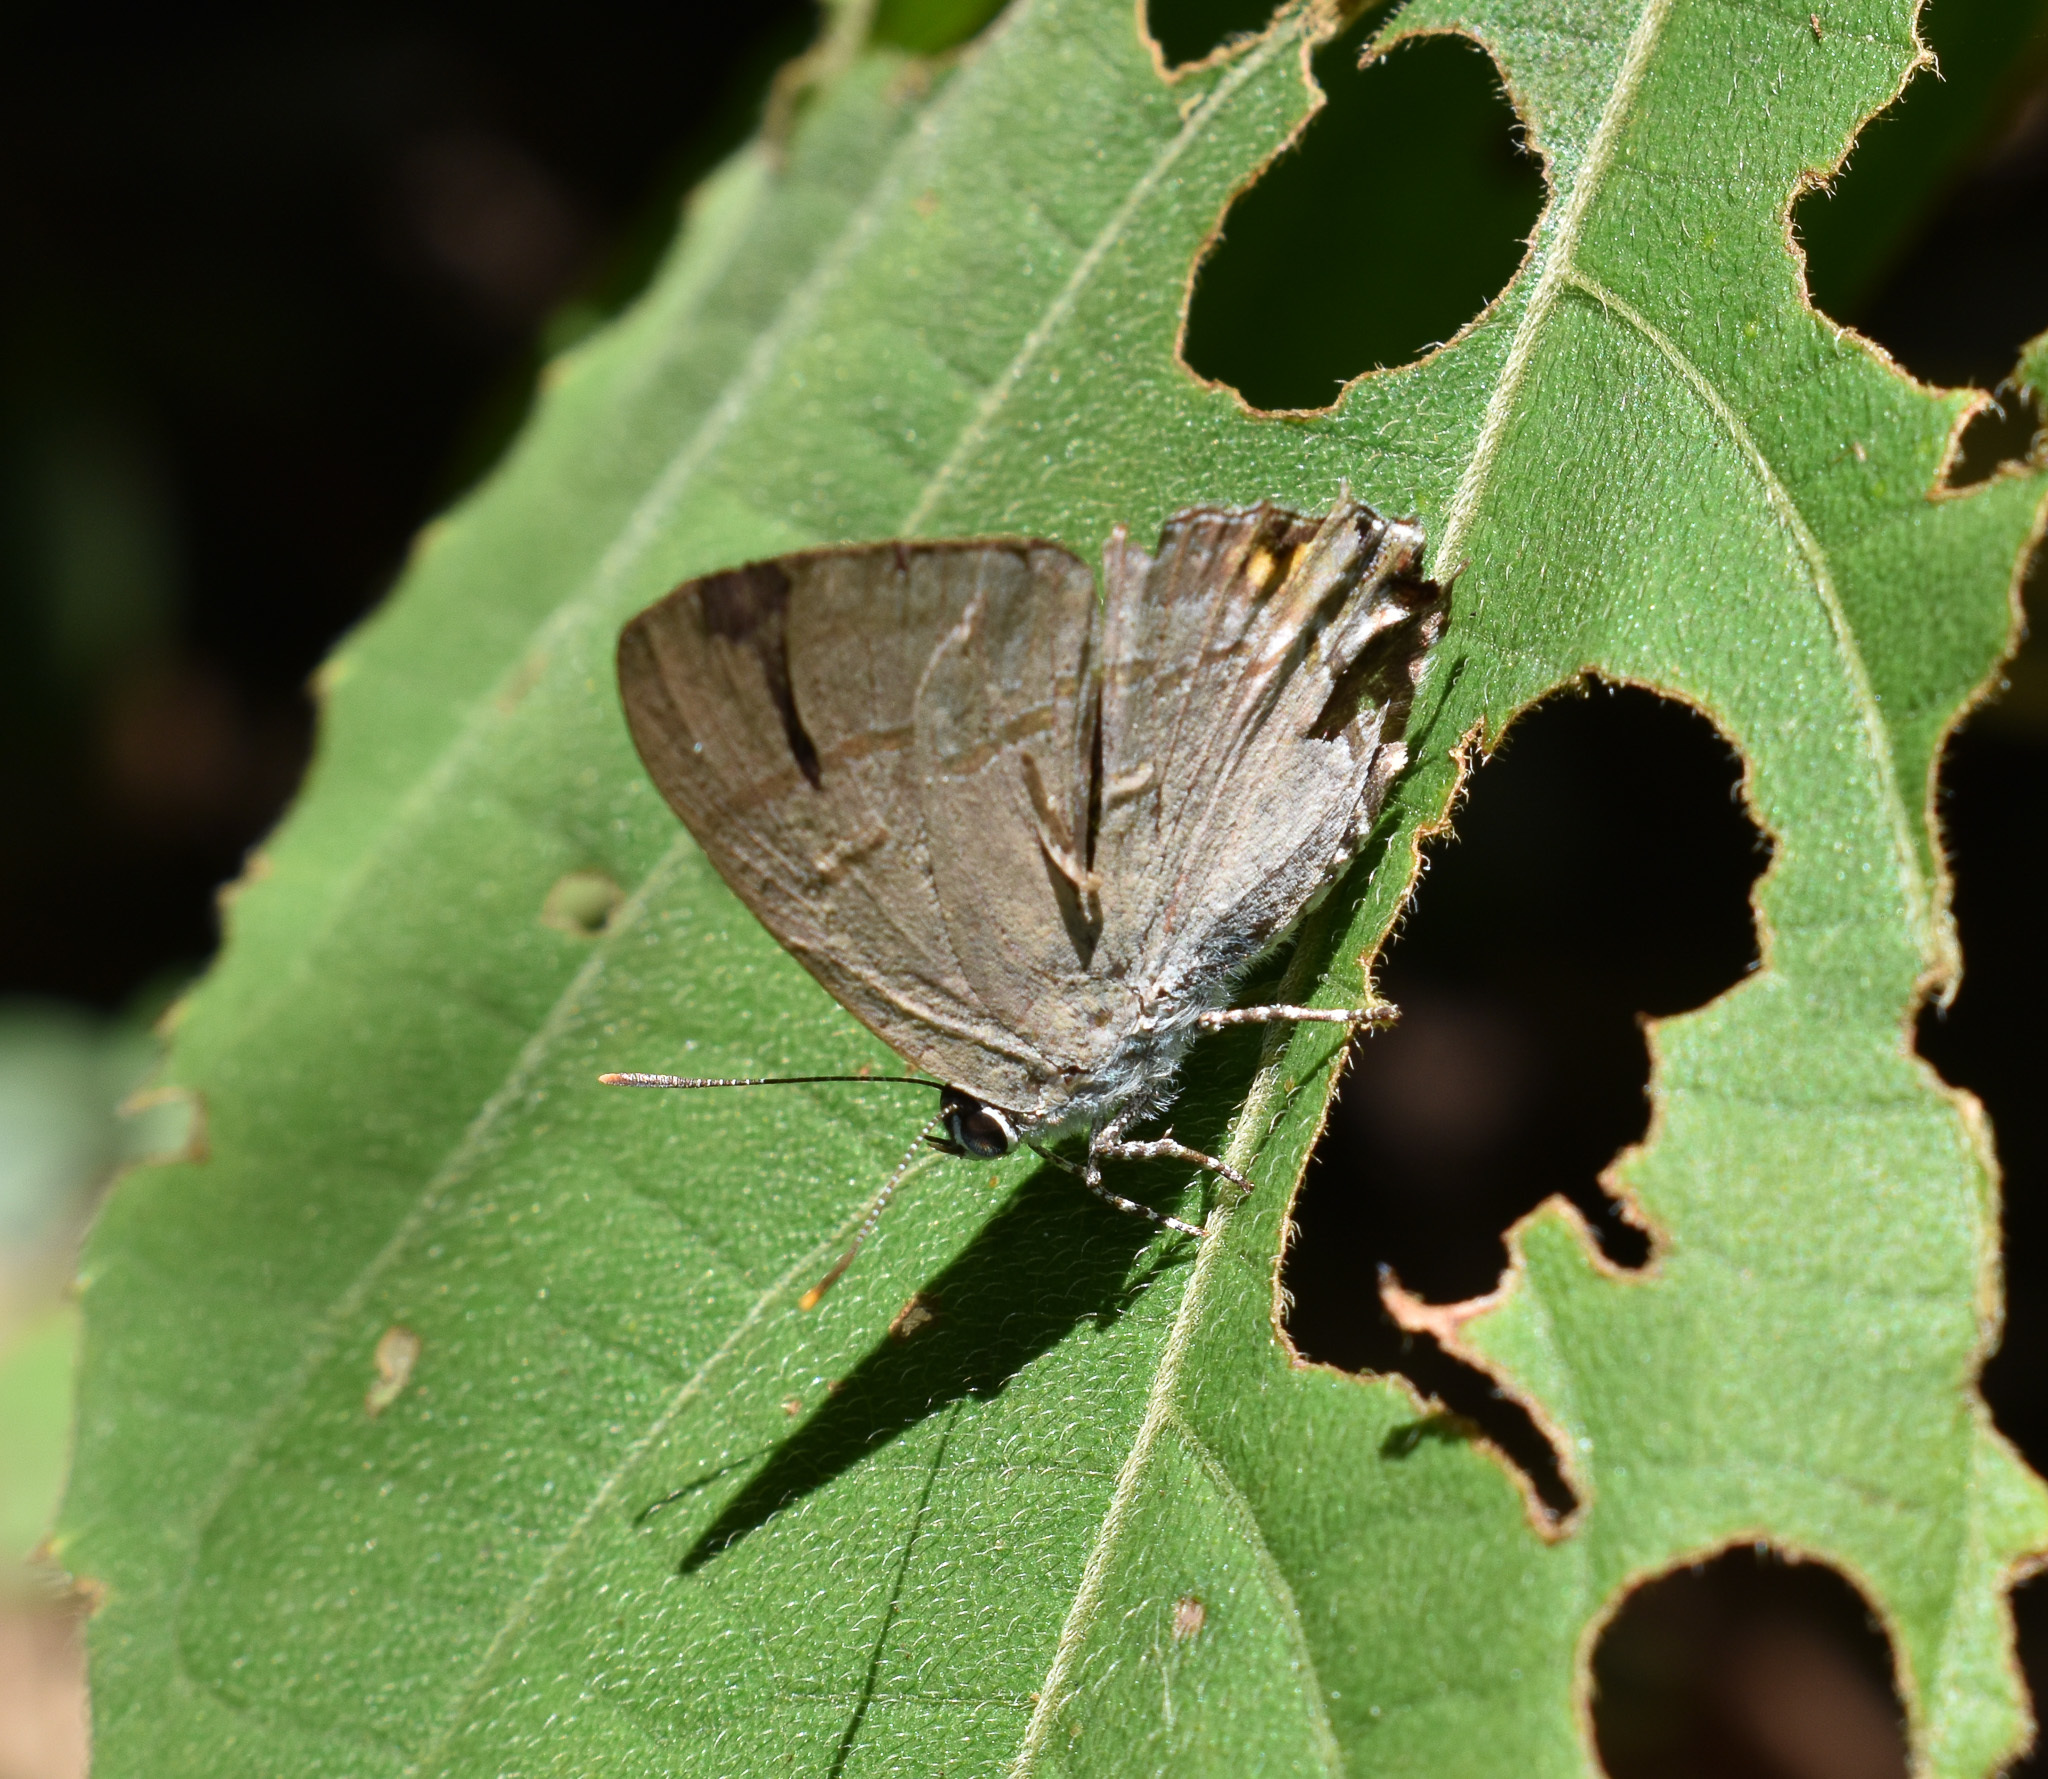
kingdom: Animalia
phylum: Arthropoda
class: Insecta
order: Lepidoptera
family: Lycaenidae
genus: Hypolycaena
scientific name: Hypolycaena erylus
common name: Common tit
